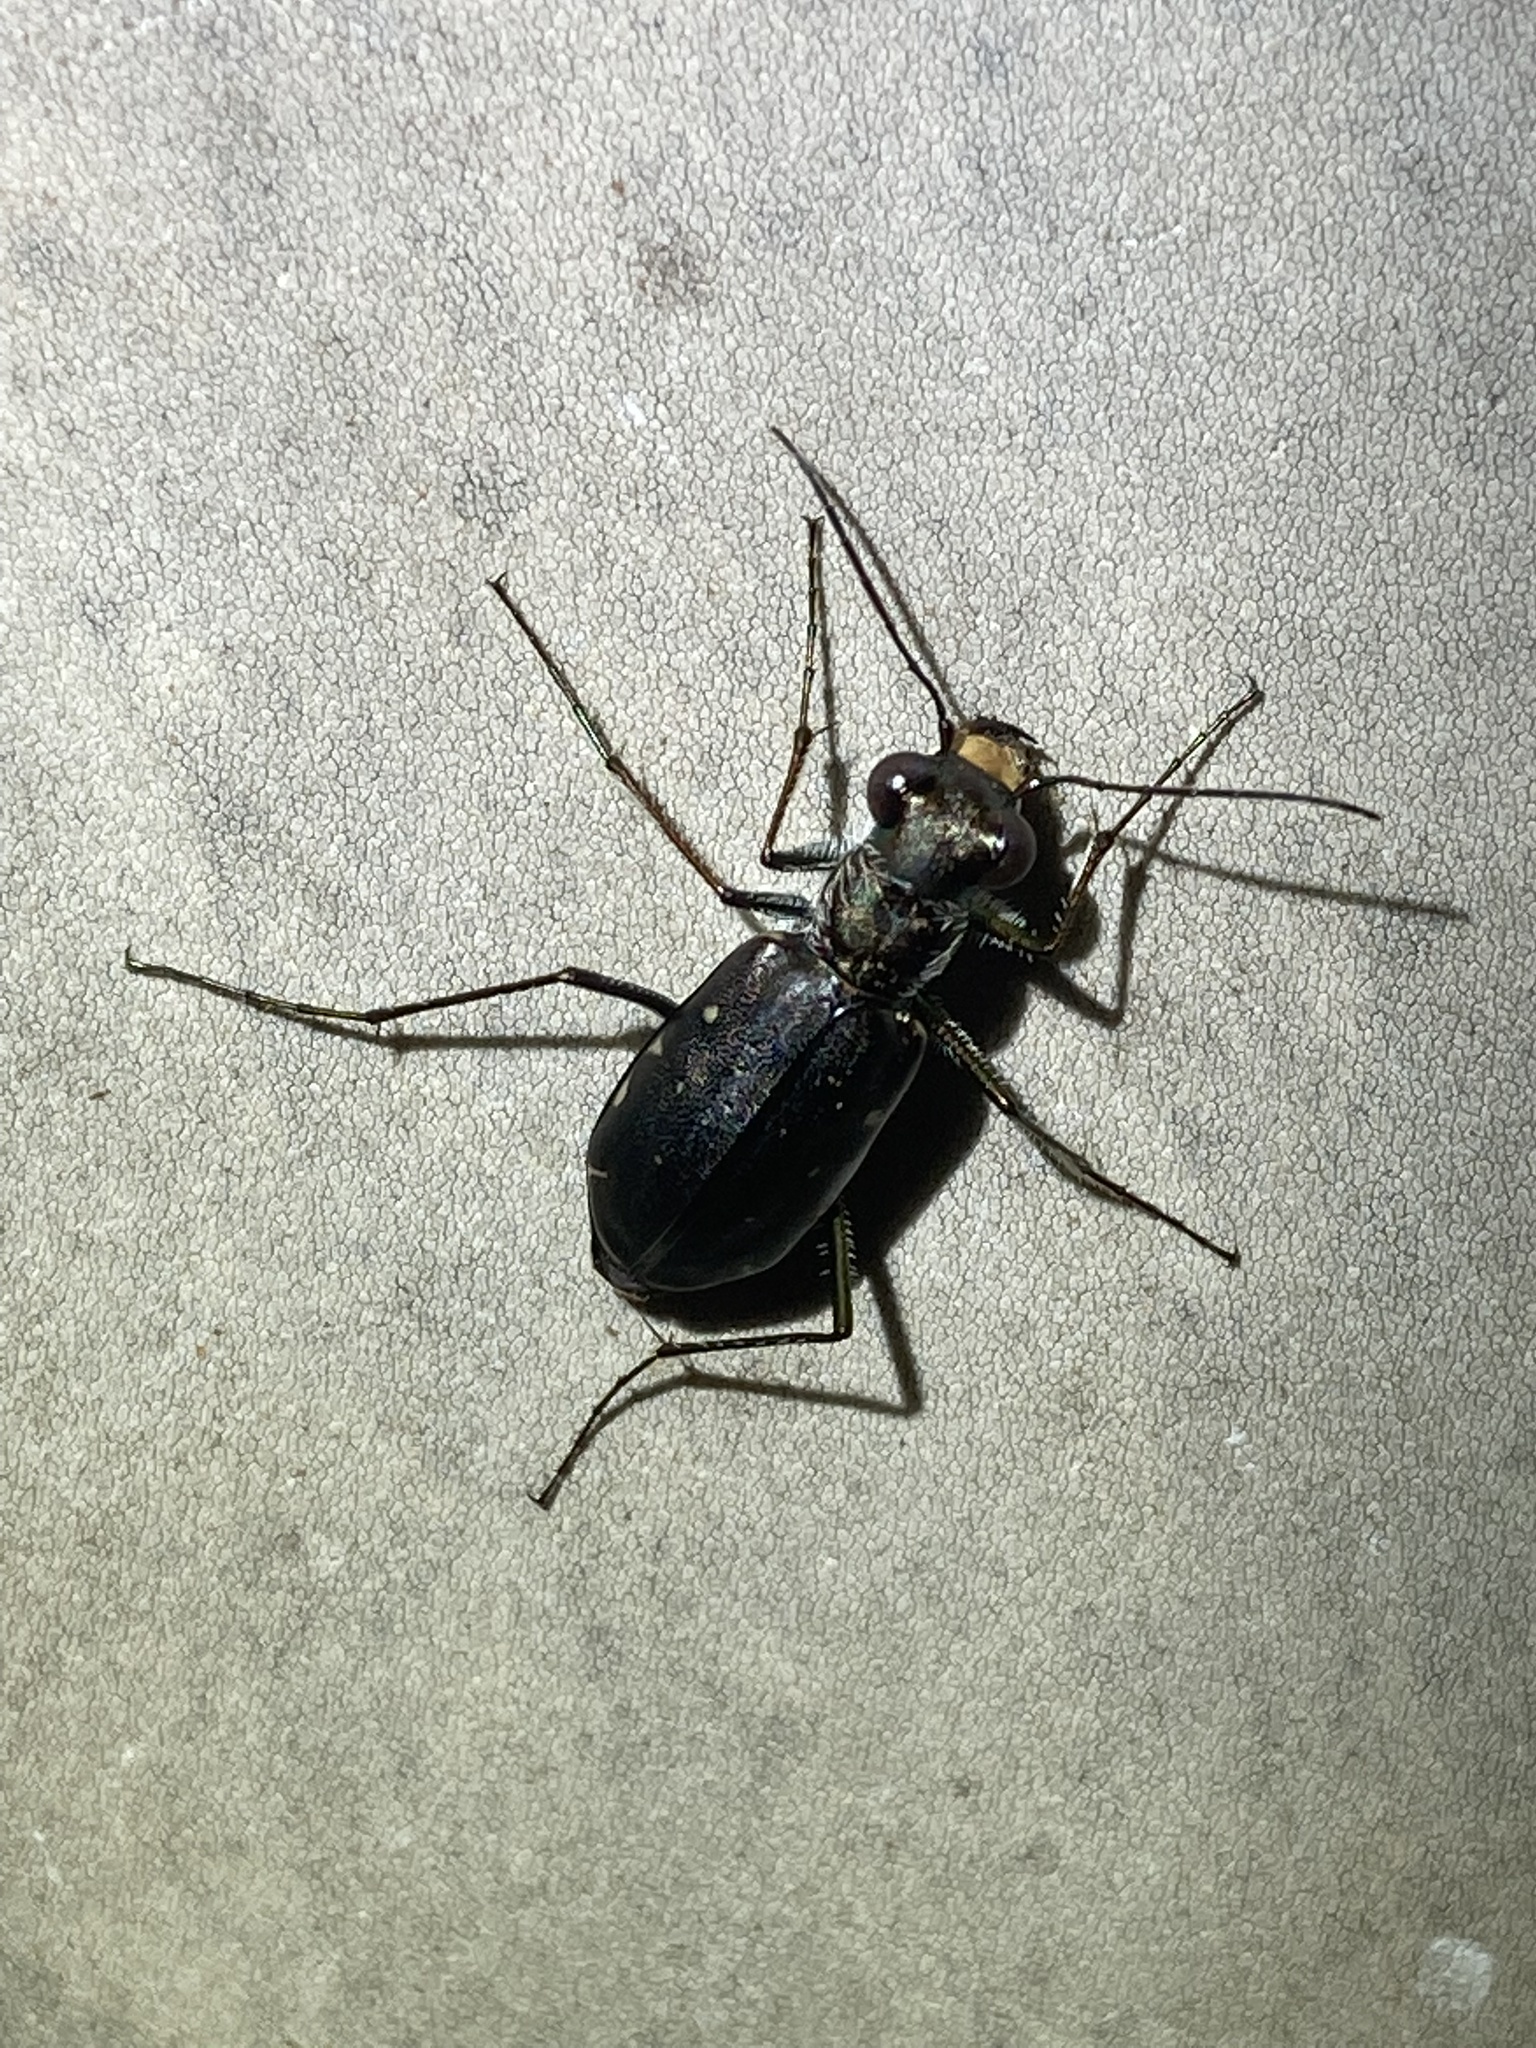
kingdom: Animalia
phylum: Arthropoda
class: Insecta
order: Coleoptera
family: Carabidae
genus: Cicindela
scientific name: Cicindela punctulata
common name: Punctured tiger beetle
